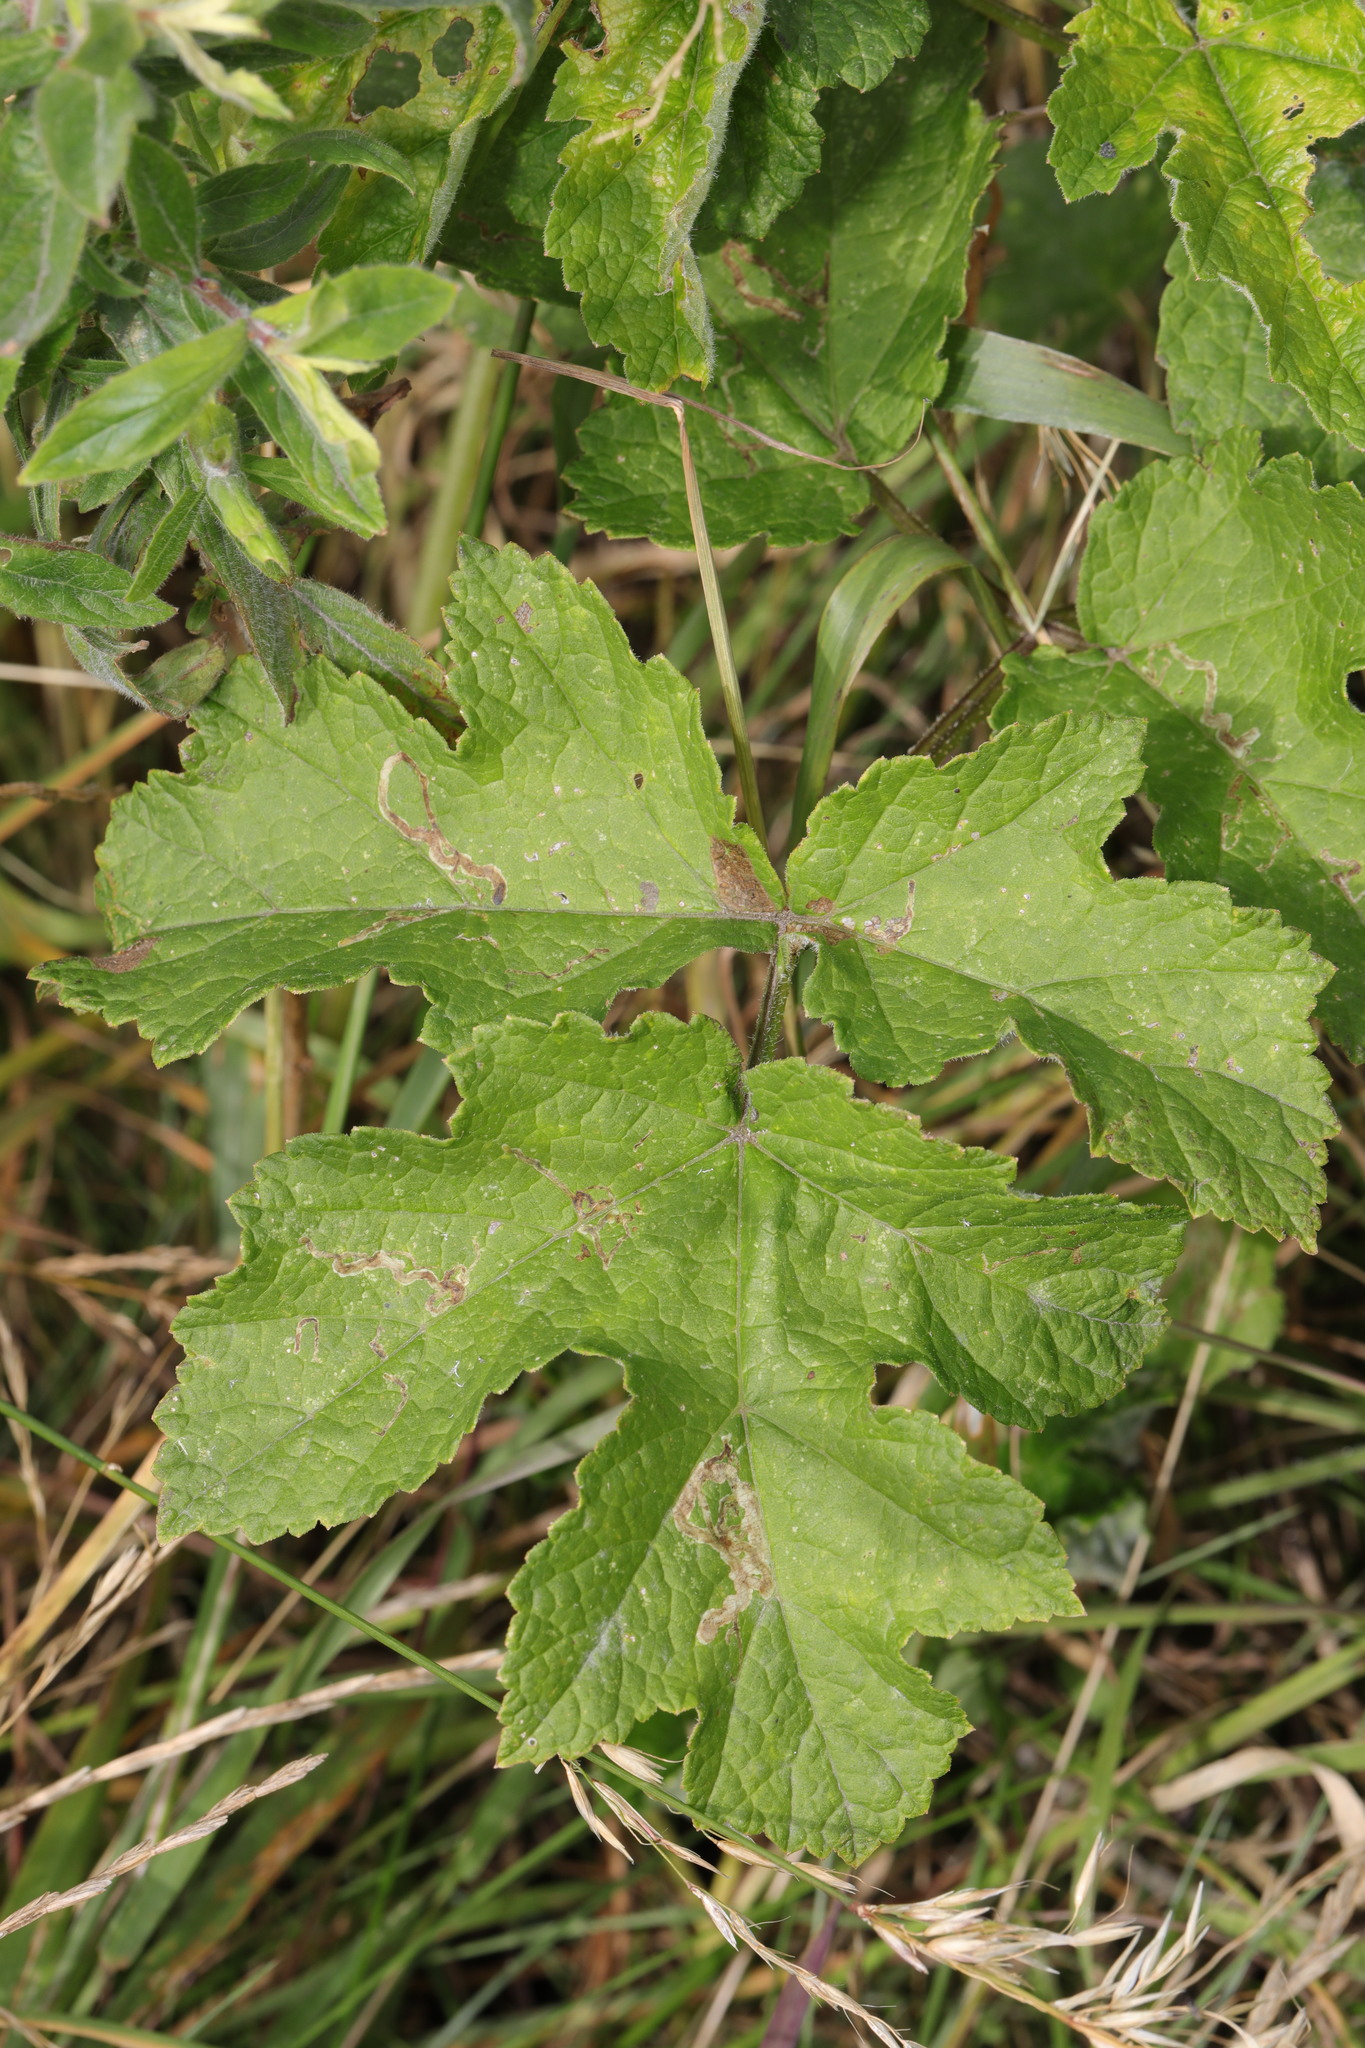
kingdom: Plantae
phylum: Tracheophyta
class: Magnoliopsida
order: Apiales
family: Apiaceae
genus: Heracleum
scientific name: Heracleum sphondylium
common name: Hogweed
